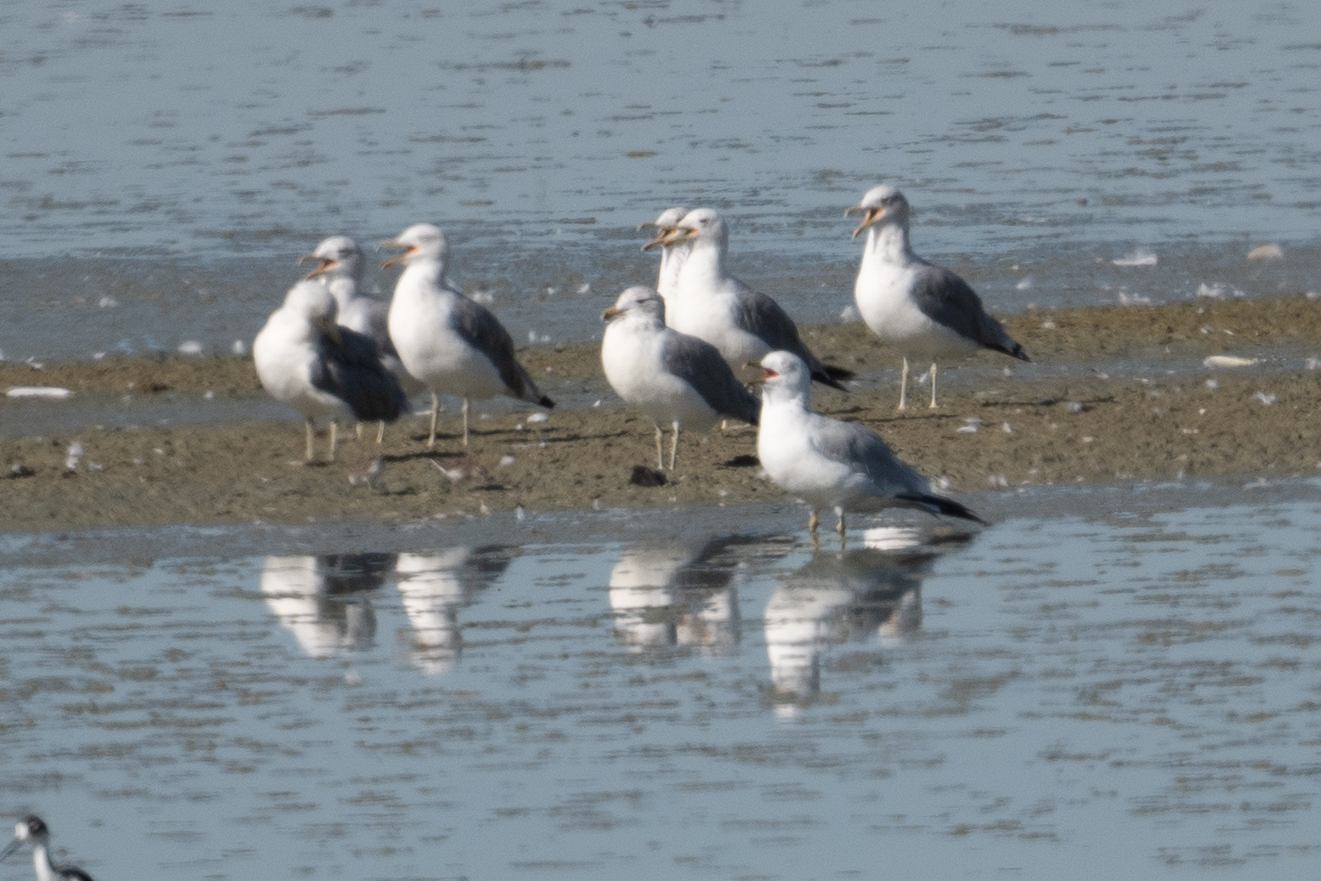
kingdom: Animalia
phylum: Chordata
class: Aves
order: Charadriiformes
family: Laridae
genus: Larus
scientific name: Larus californicus
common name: California gull
